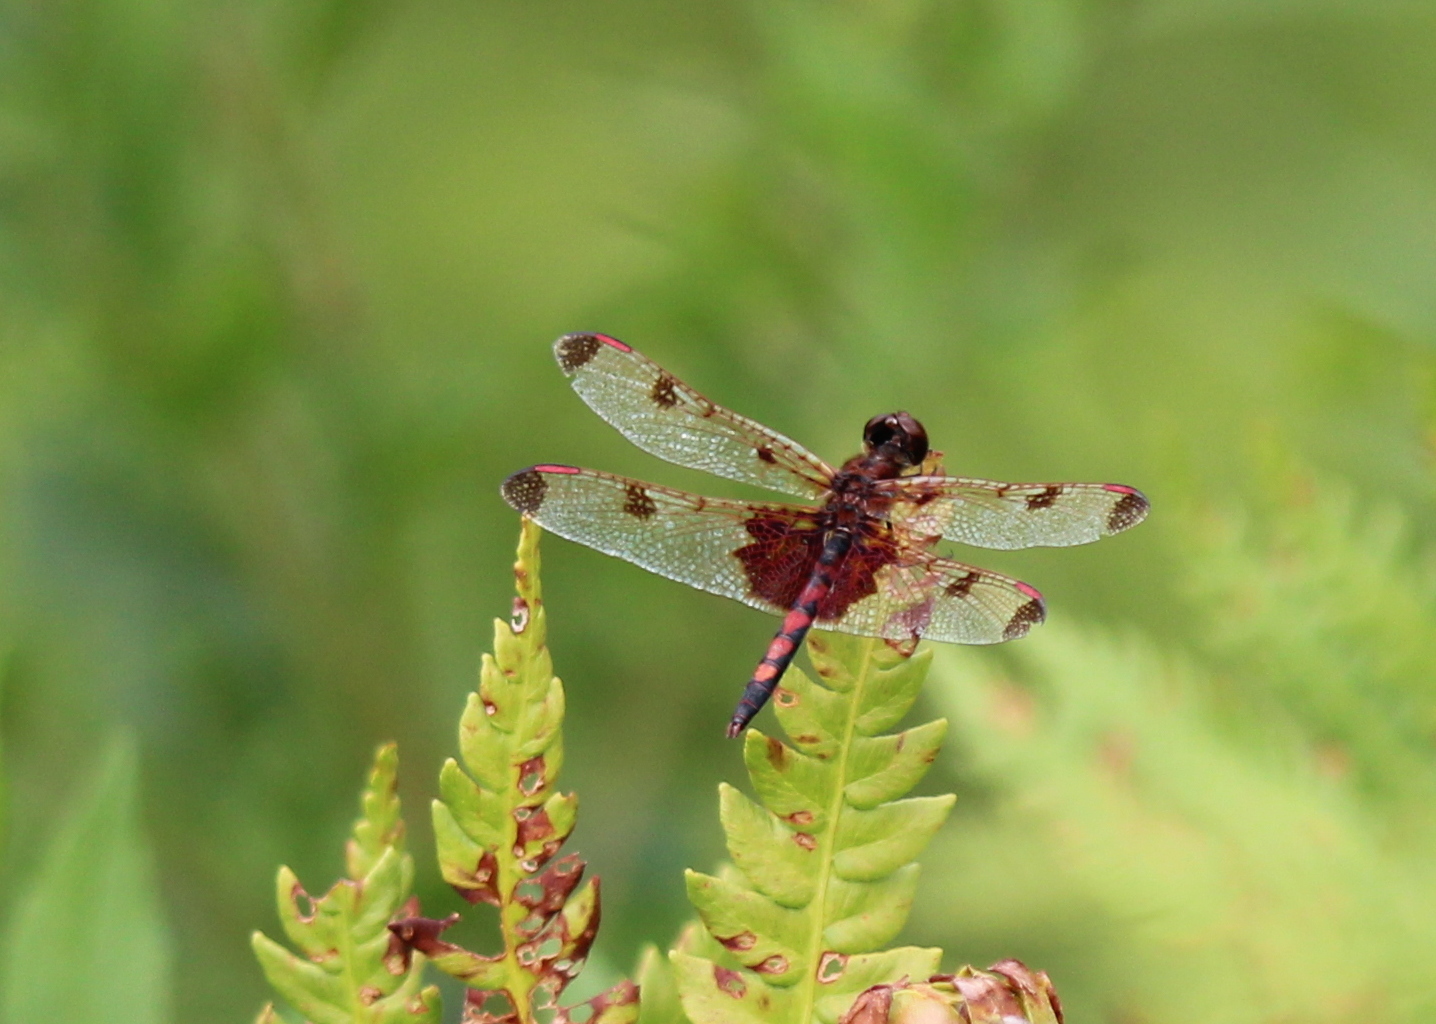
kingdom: Animalia
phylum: Arthropoda
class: Insecta
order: Odonata
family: Libellulidae
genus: Celithemis
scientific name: Celithemis elisa
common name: Calico pennant
